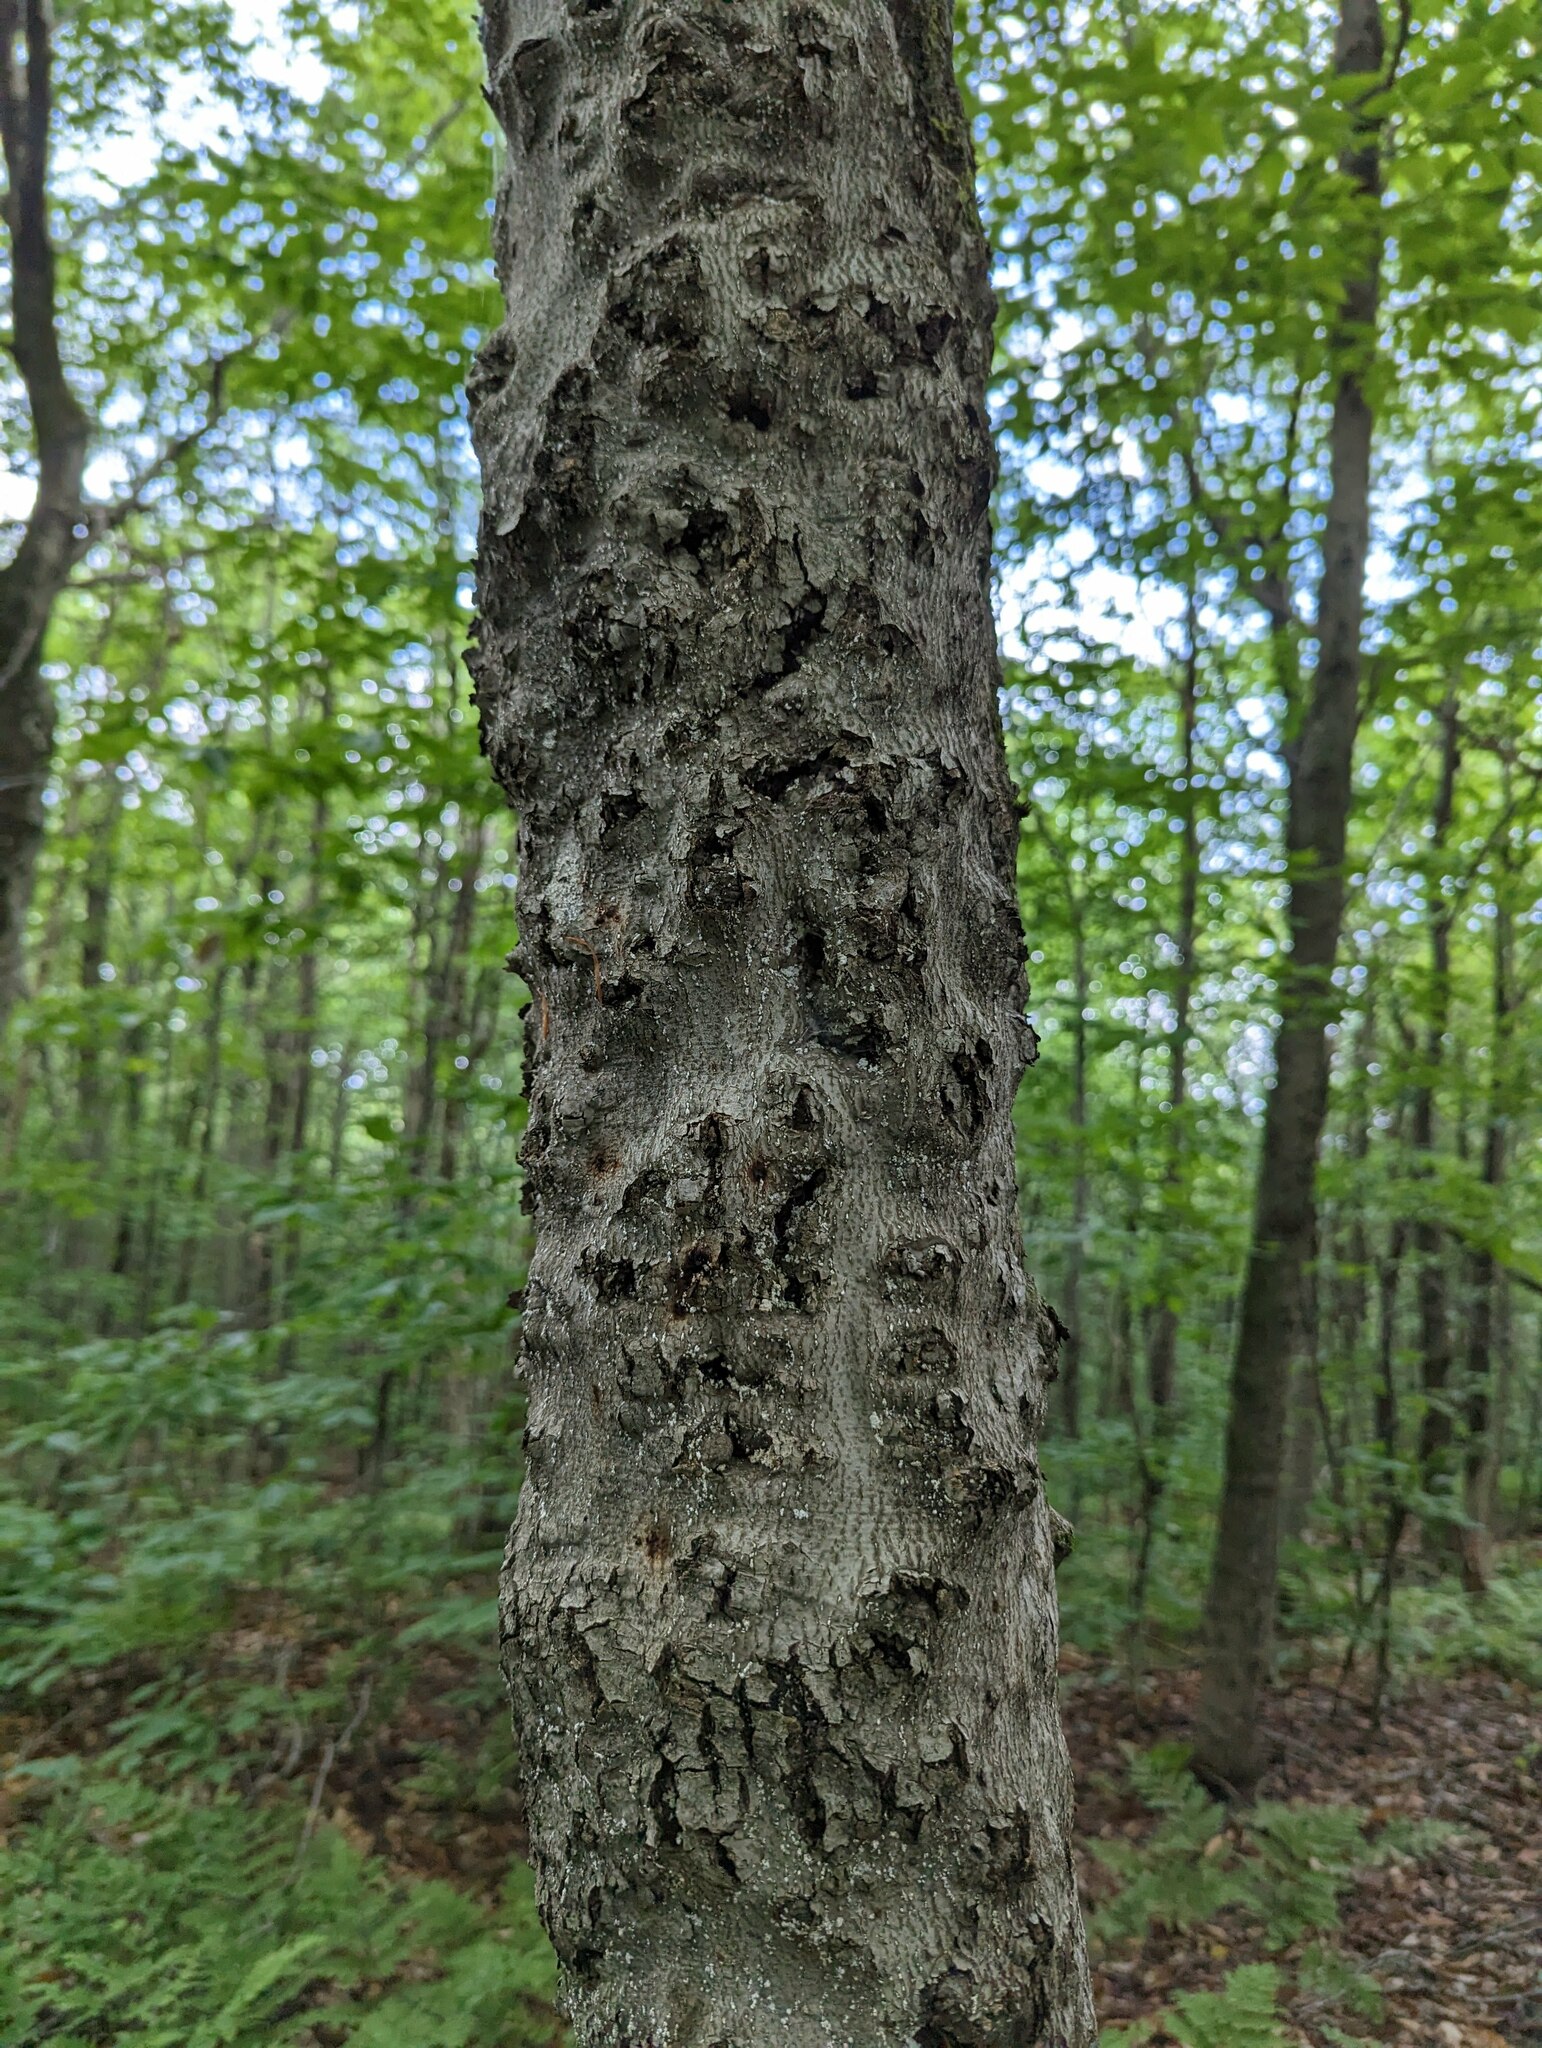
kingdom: Plantae
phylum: Tracheophyta
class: Magnoliopsida
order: Fagales
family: Fagaceae
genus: Fagus
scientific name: Fagus grandifolia
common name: American beech
